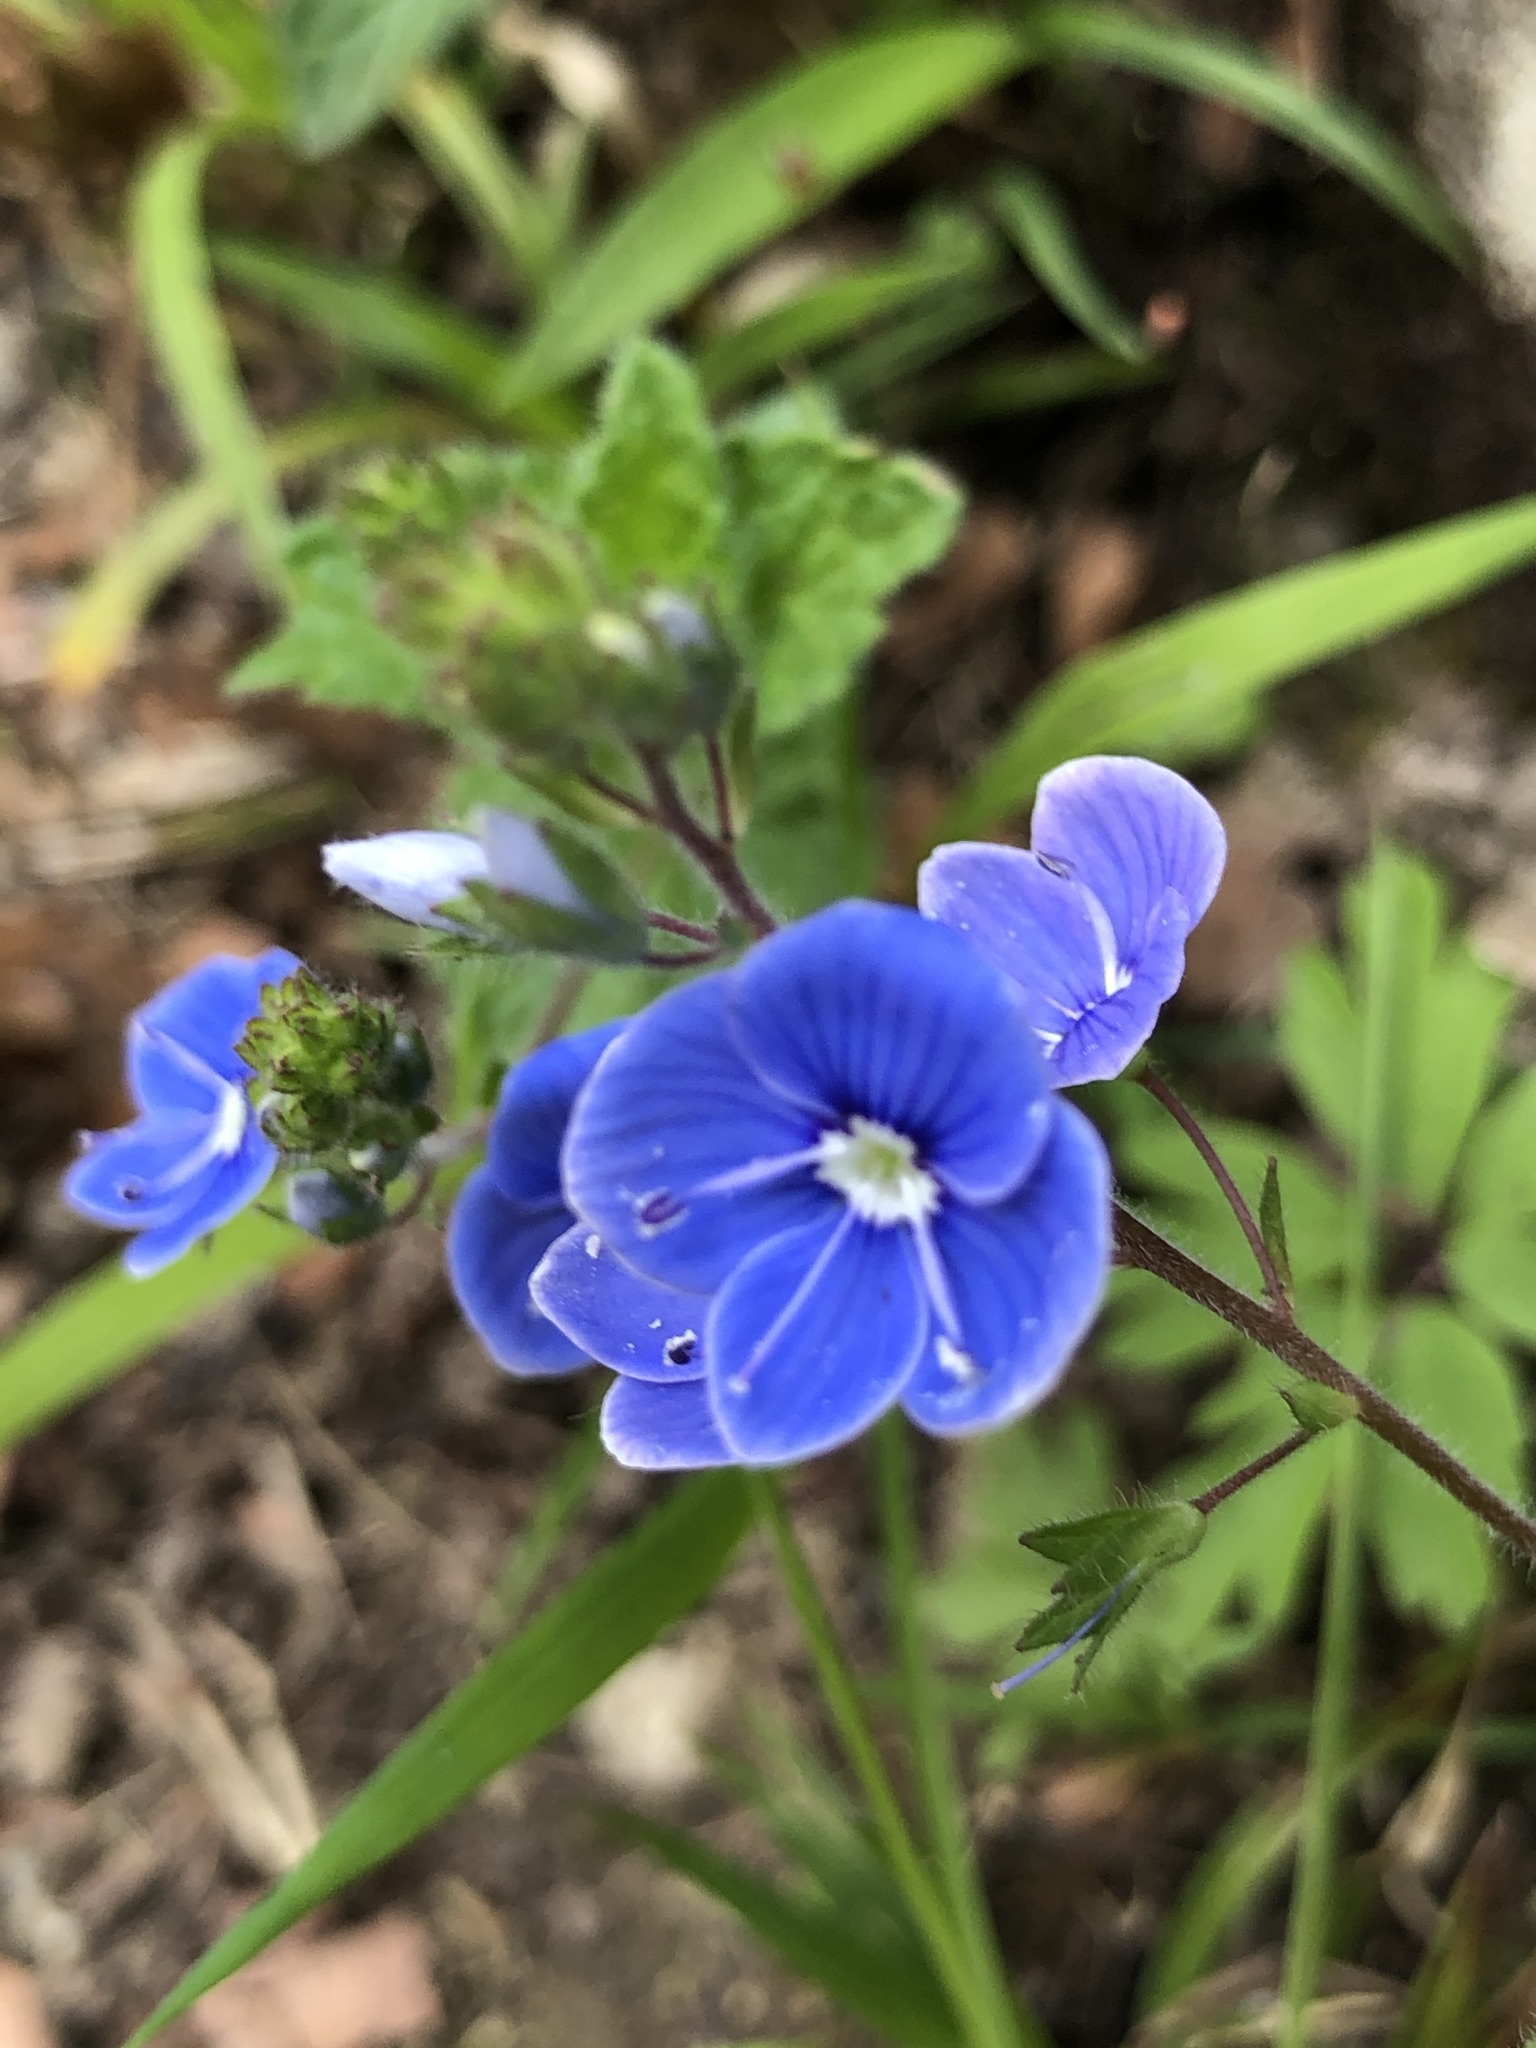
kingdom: Plantae
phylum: Tracheophyta
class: Magnoliopsida
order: Lamiales
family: Plantaginaceae
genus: Veronica
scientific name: Veronica chamaedrys
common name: Germander speedwell
